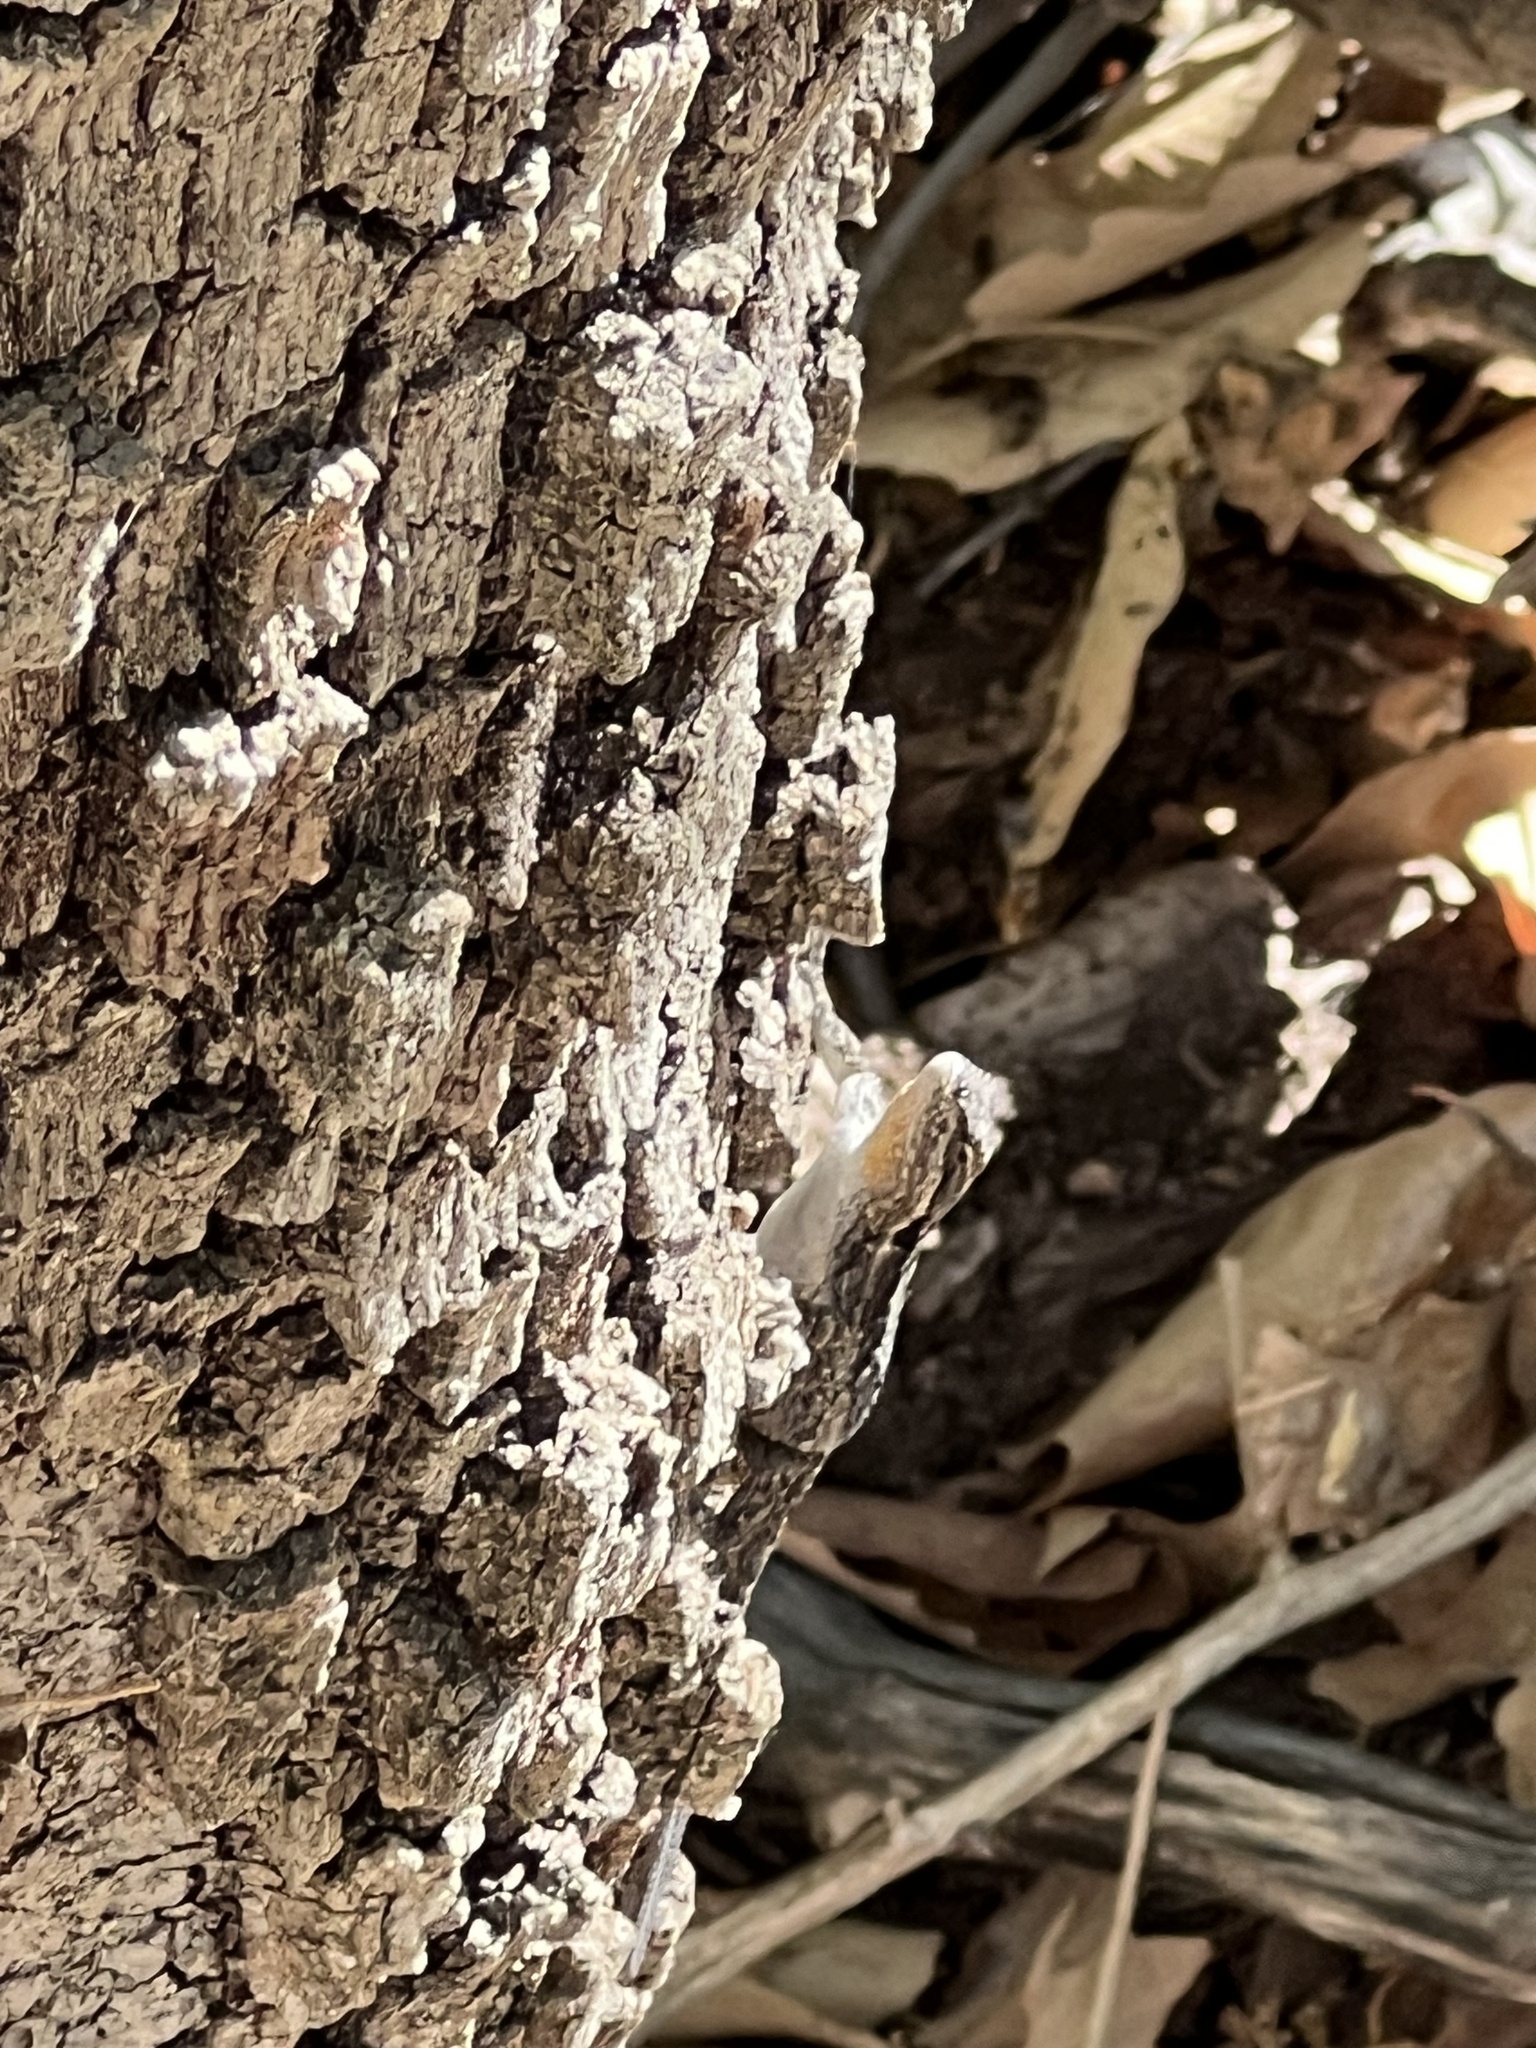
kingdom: Animalia
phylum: Chordata
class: Squamata
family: Phrynosomatidae
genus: Urosaurus
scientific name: Urosaurus ornatus
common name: Ornate tree lizard
